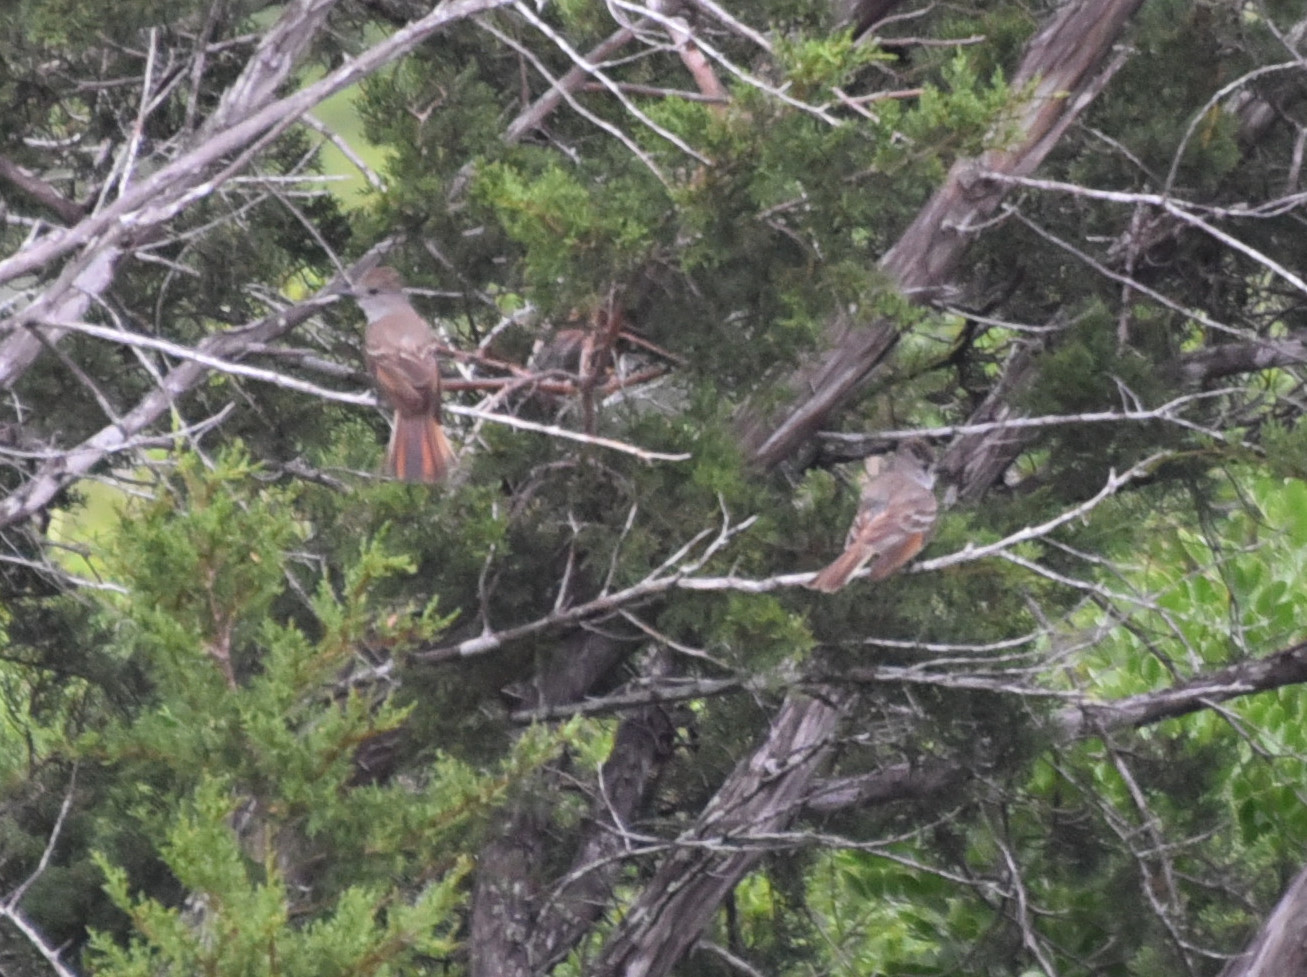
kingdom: Animalia
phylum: Chordata
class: Aves
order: Passeriformes
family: Tyrannidae
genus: Myiarchus
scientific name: Myiarchus cinerascens
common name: Ash-throated flycatcher
